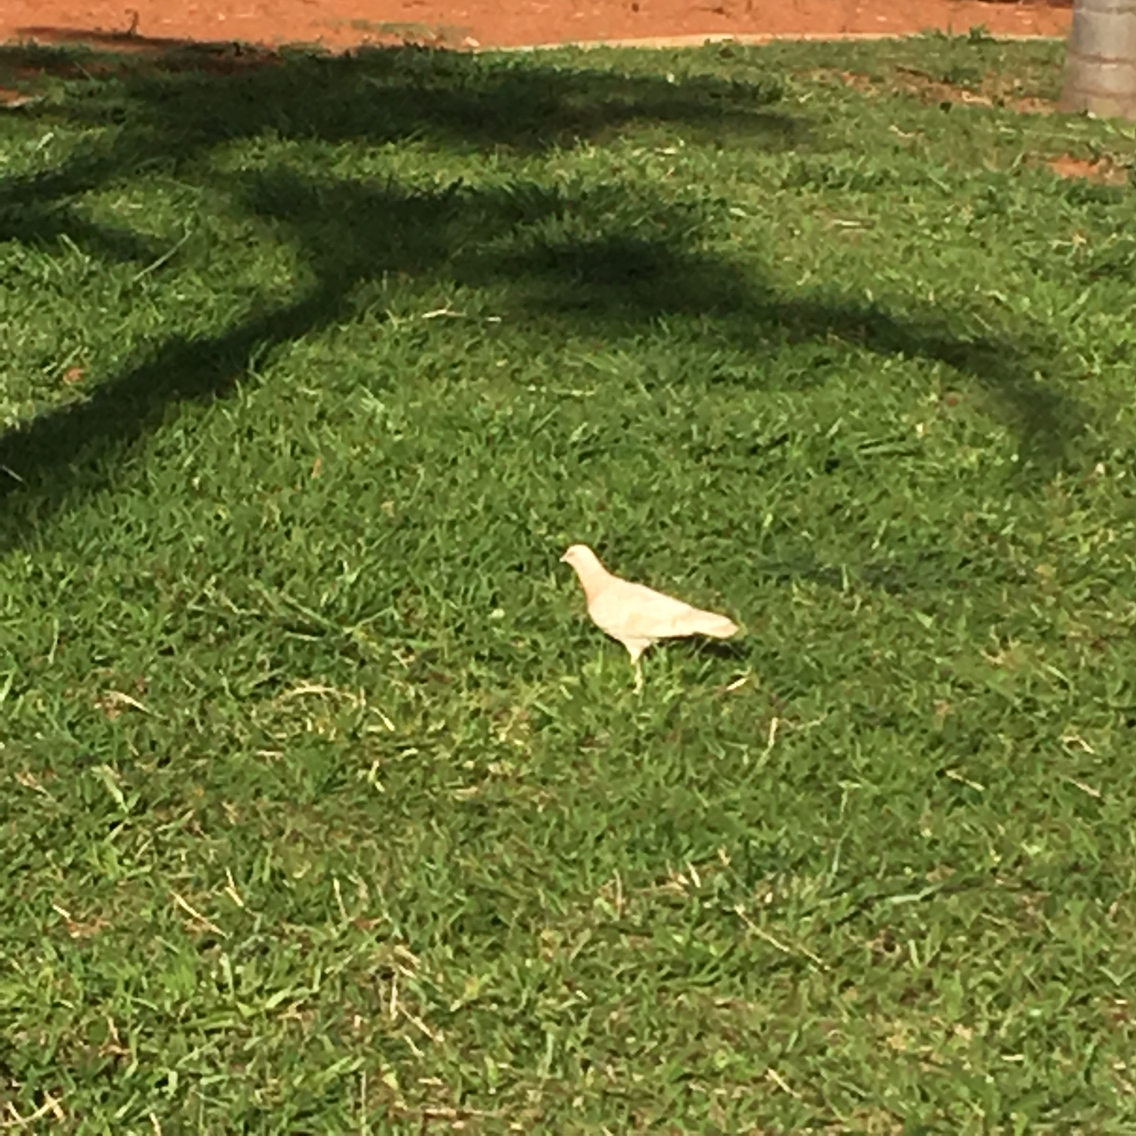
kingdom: Animalia
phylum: Chordata
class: Aves
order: Columbiformes
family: Columbidae
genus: Columba
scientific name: Columba livia
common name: Rock pigeon
